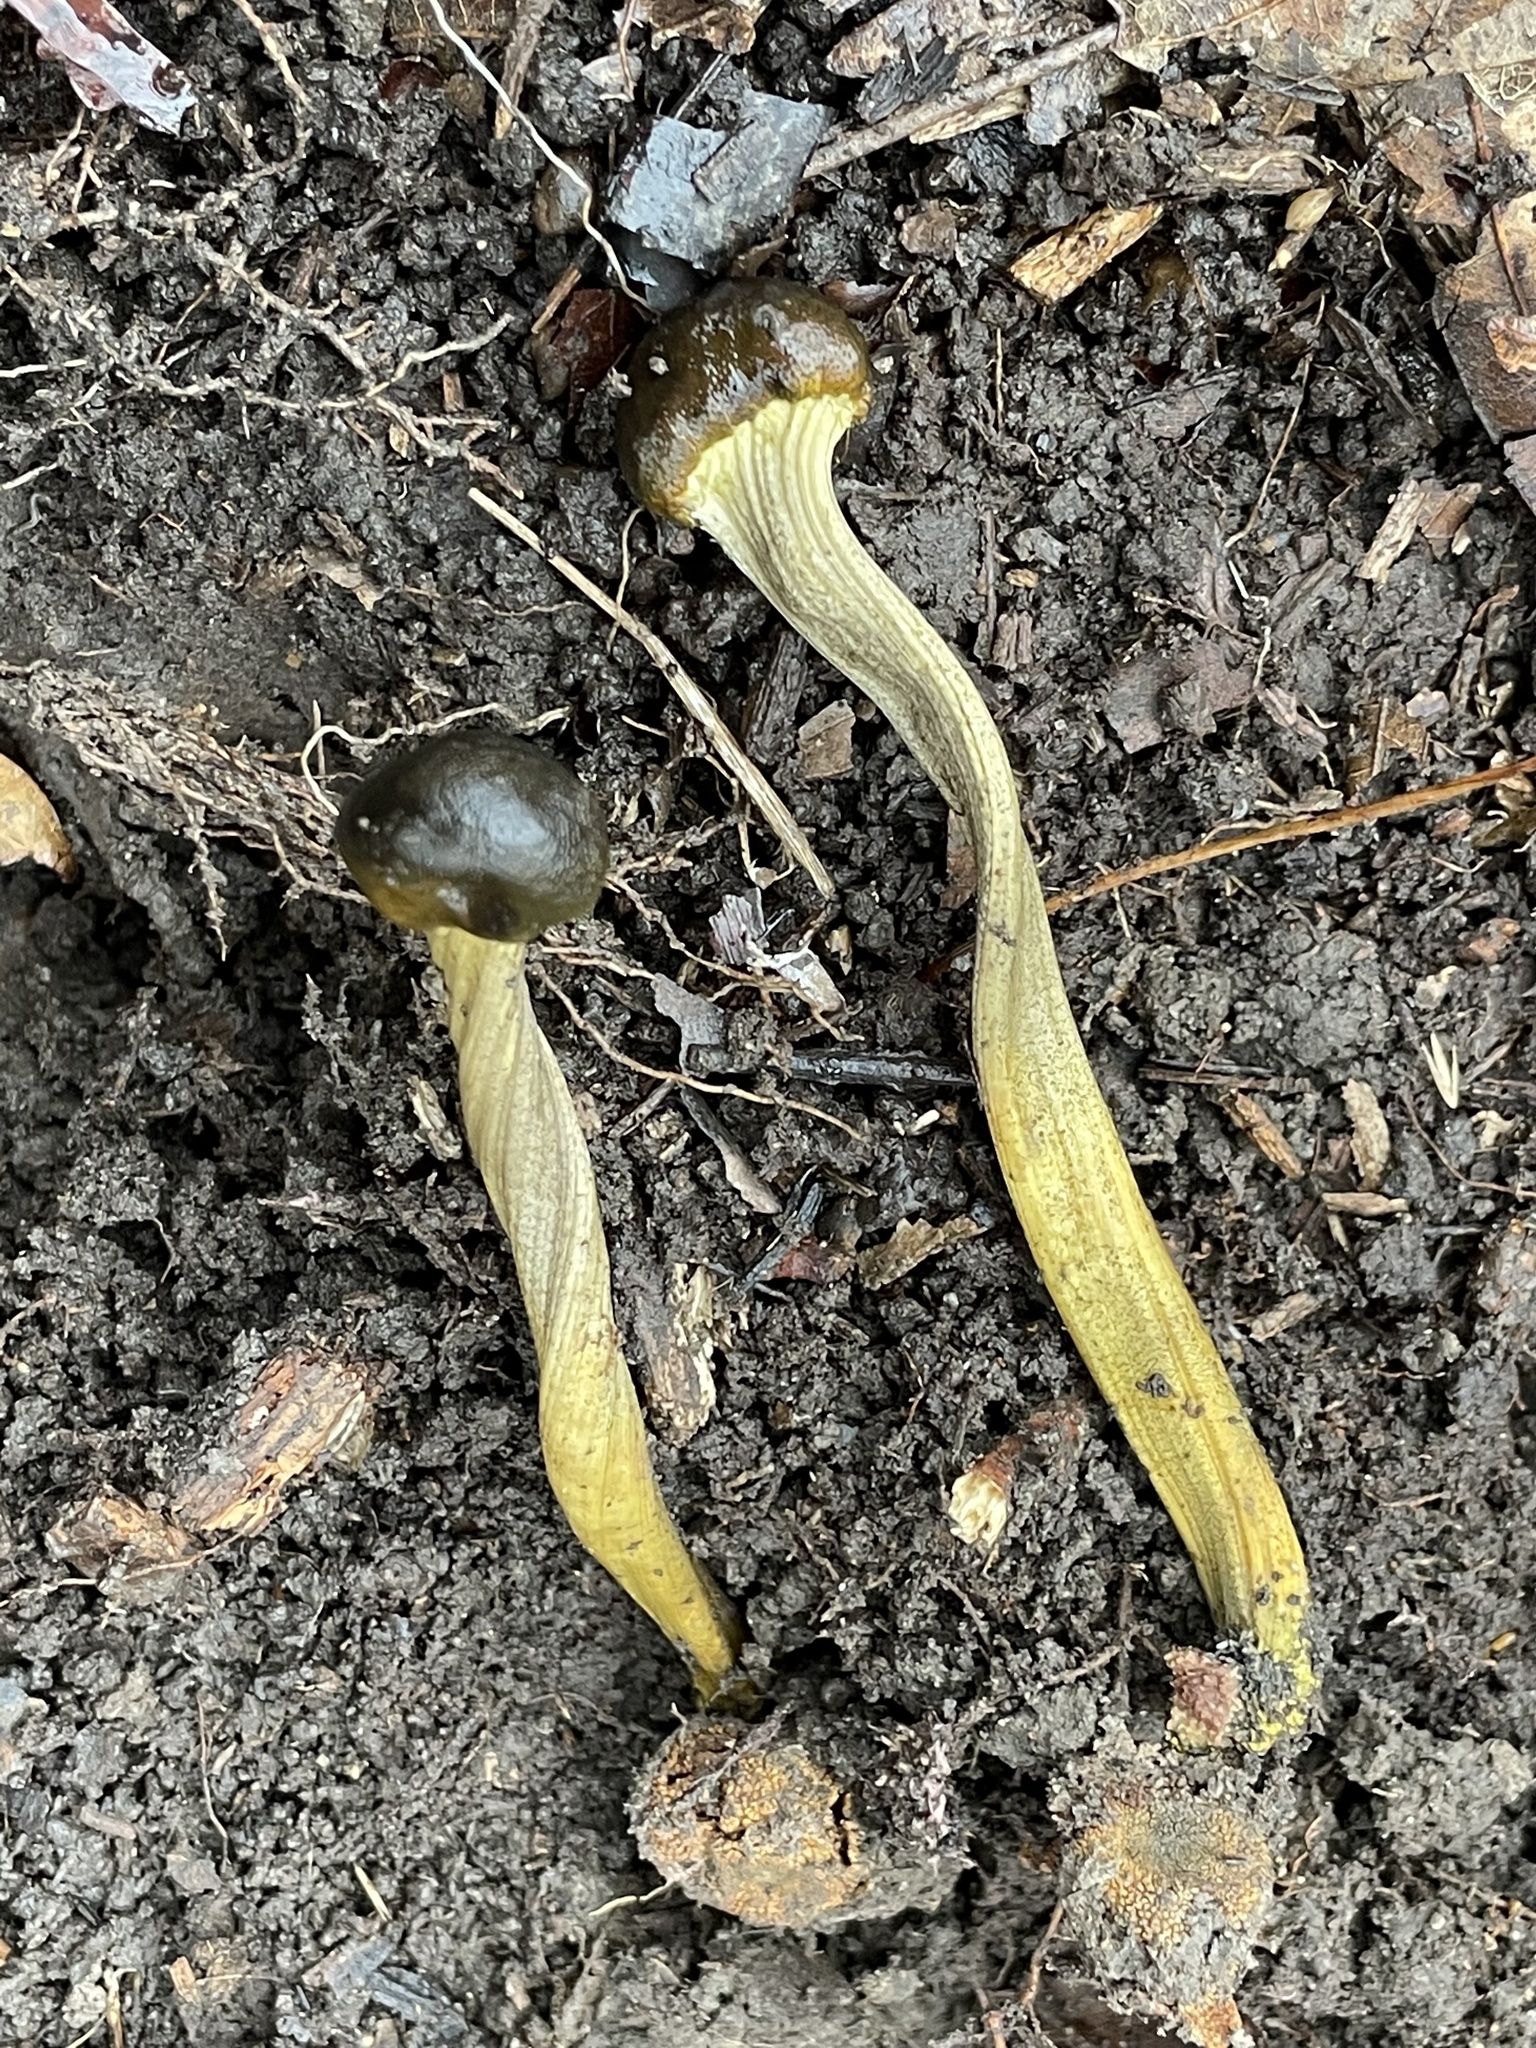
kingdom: Fungi
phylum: Ascomycota
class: Sordariomycetes
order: Hypocreales
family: Ophiocordycipitaceae
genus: Tolypocladium
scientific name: Tolypocladium longisegmentatum
